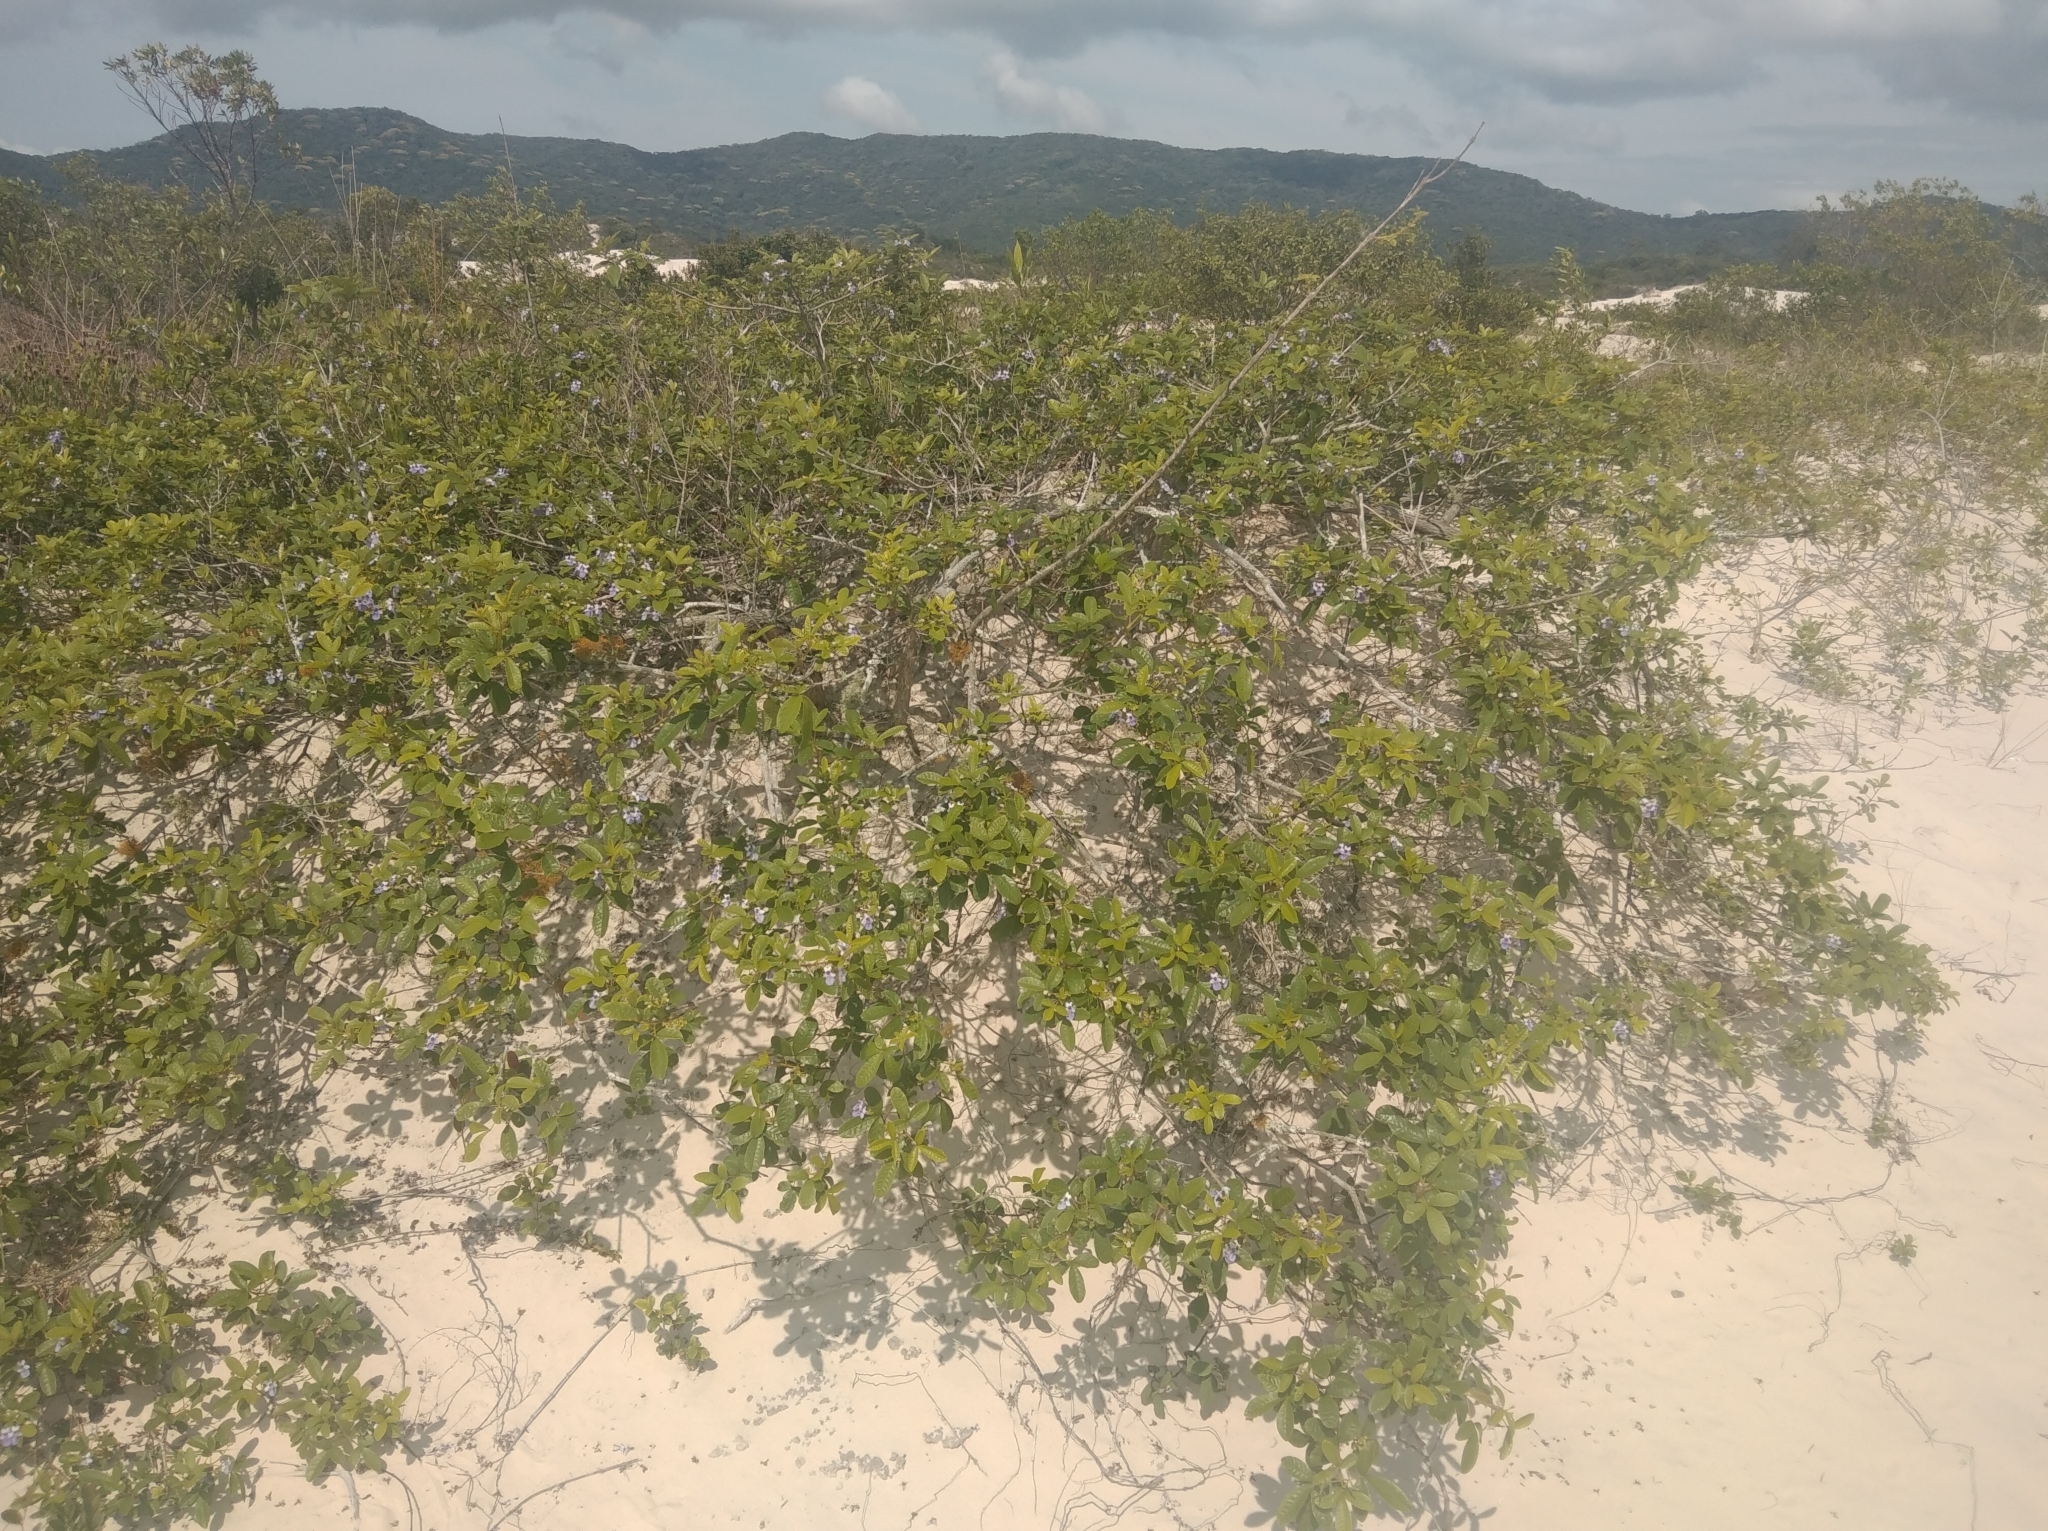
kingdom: Plantae
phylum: Tracheophyta
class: Magnoliopsida
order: Lamiales
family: Lamiaceae
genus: Vitex
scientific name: Vitex megapotamica
